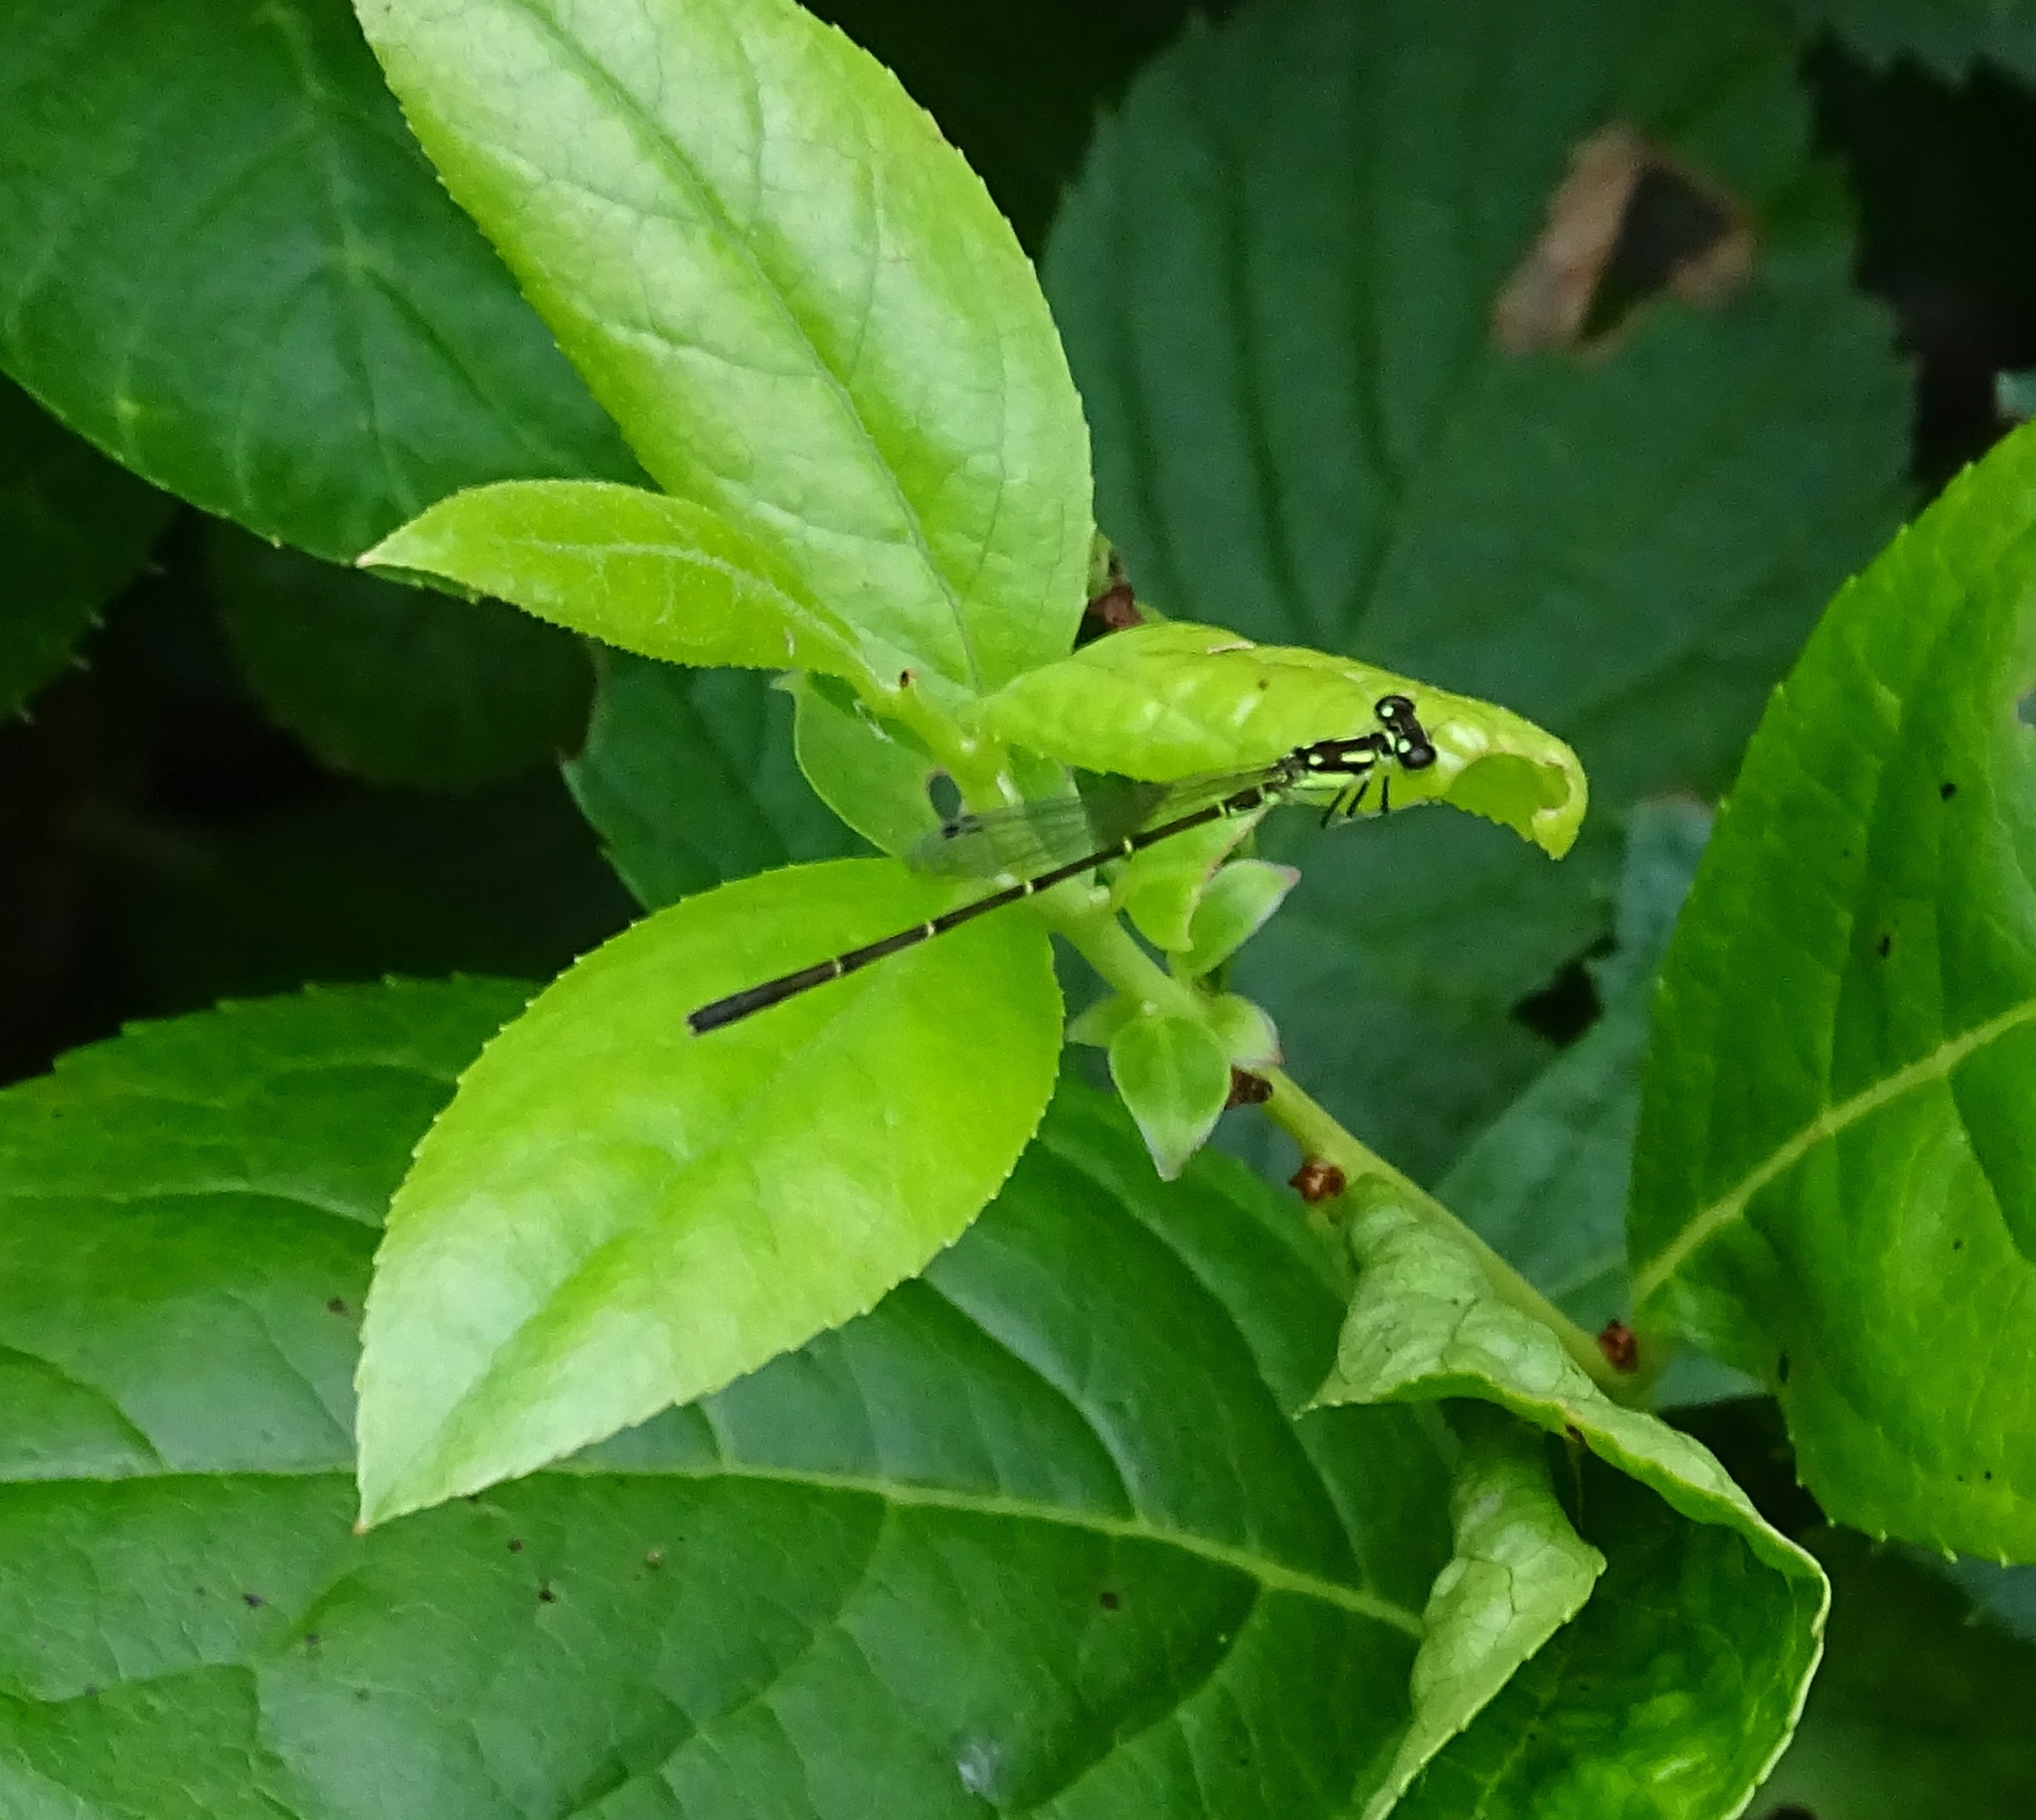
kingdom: Animalia
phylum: Arthropoda
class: Insecta
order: Odonata
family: Coenagrionidae
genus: Ischnura
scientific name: Ischnura posita
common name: Fragile forktail
